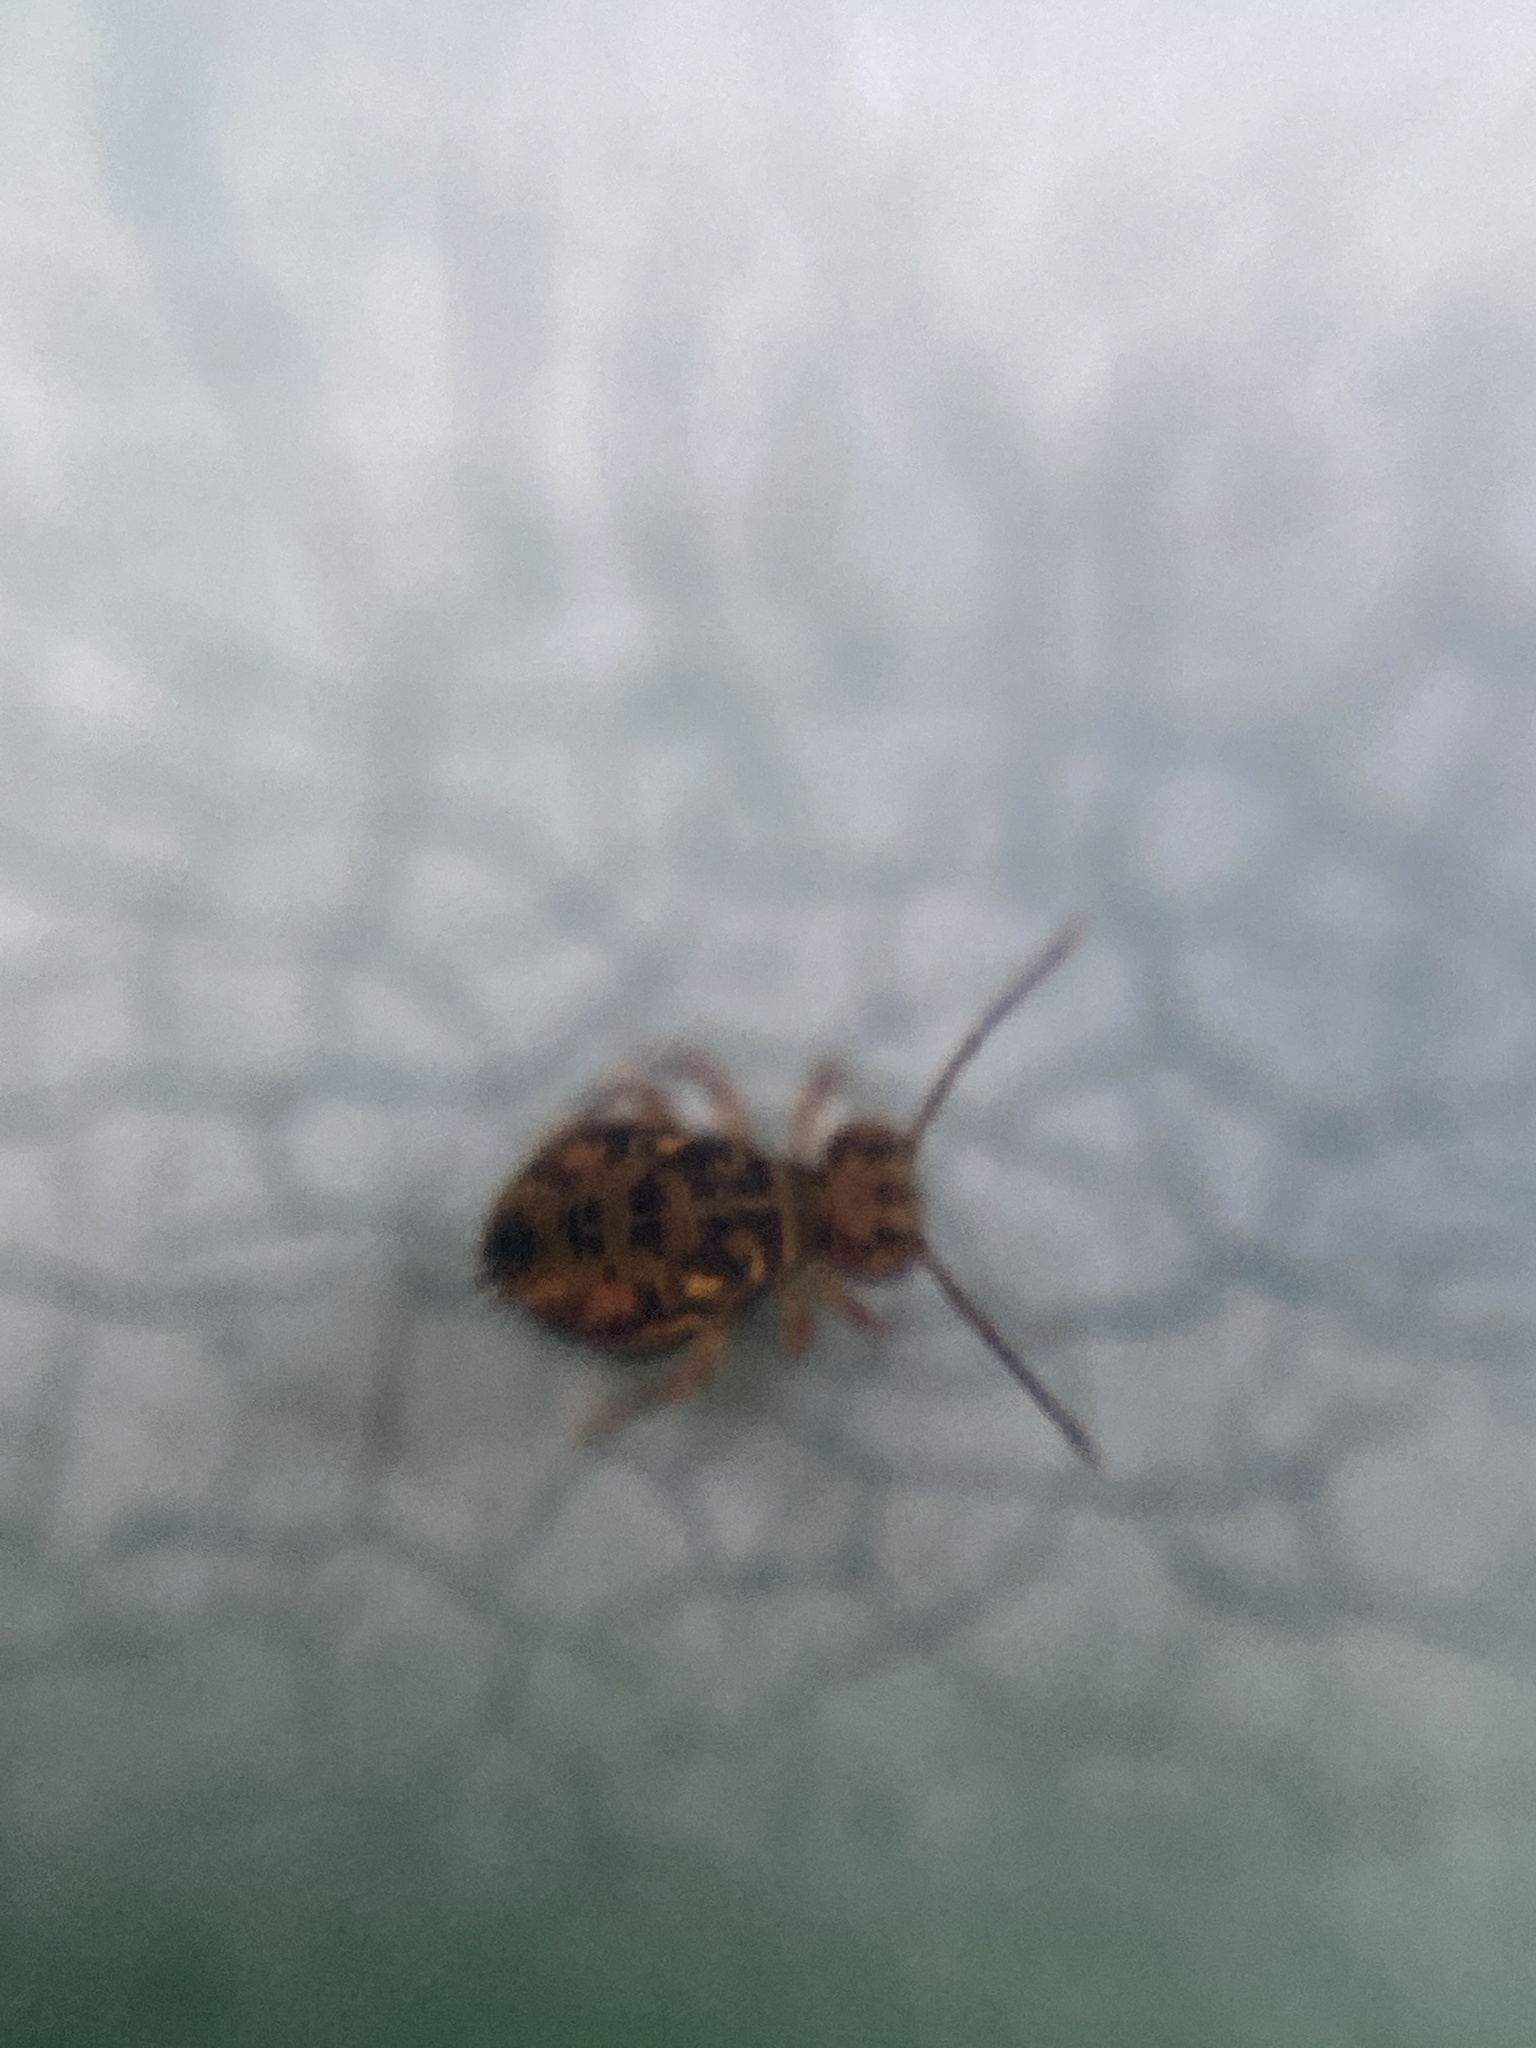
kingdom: Animalia
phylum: Arthropoda
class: Collembola
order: Symphypleona
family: Dicyrtomidae
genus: Dicyrtomina
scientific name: Dicyrtomina ornata
